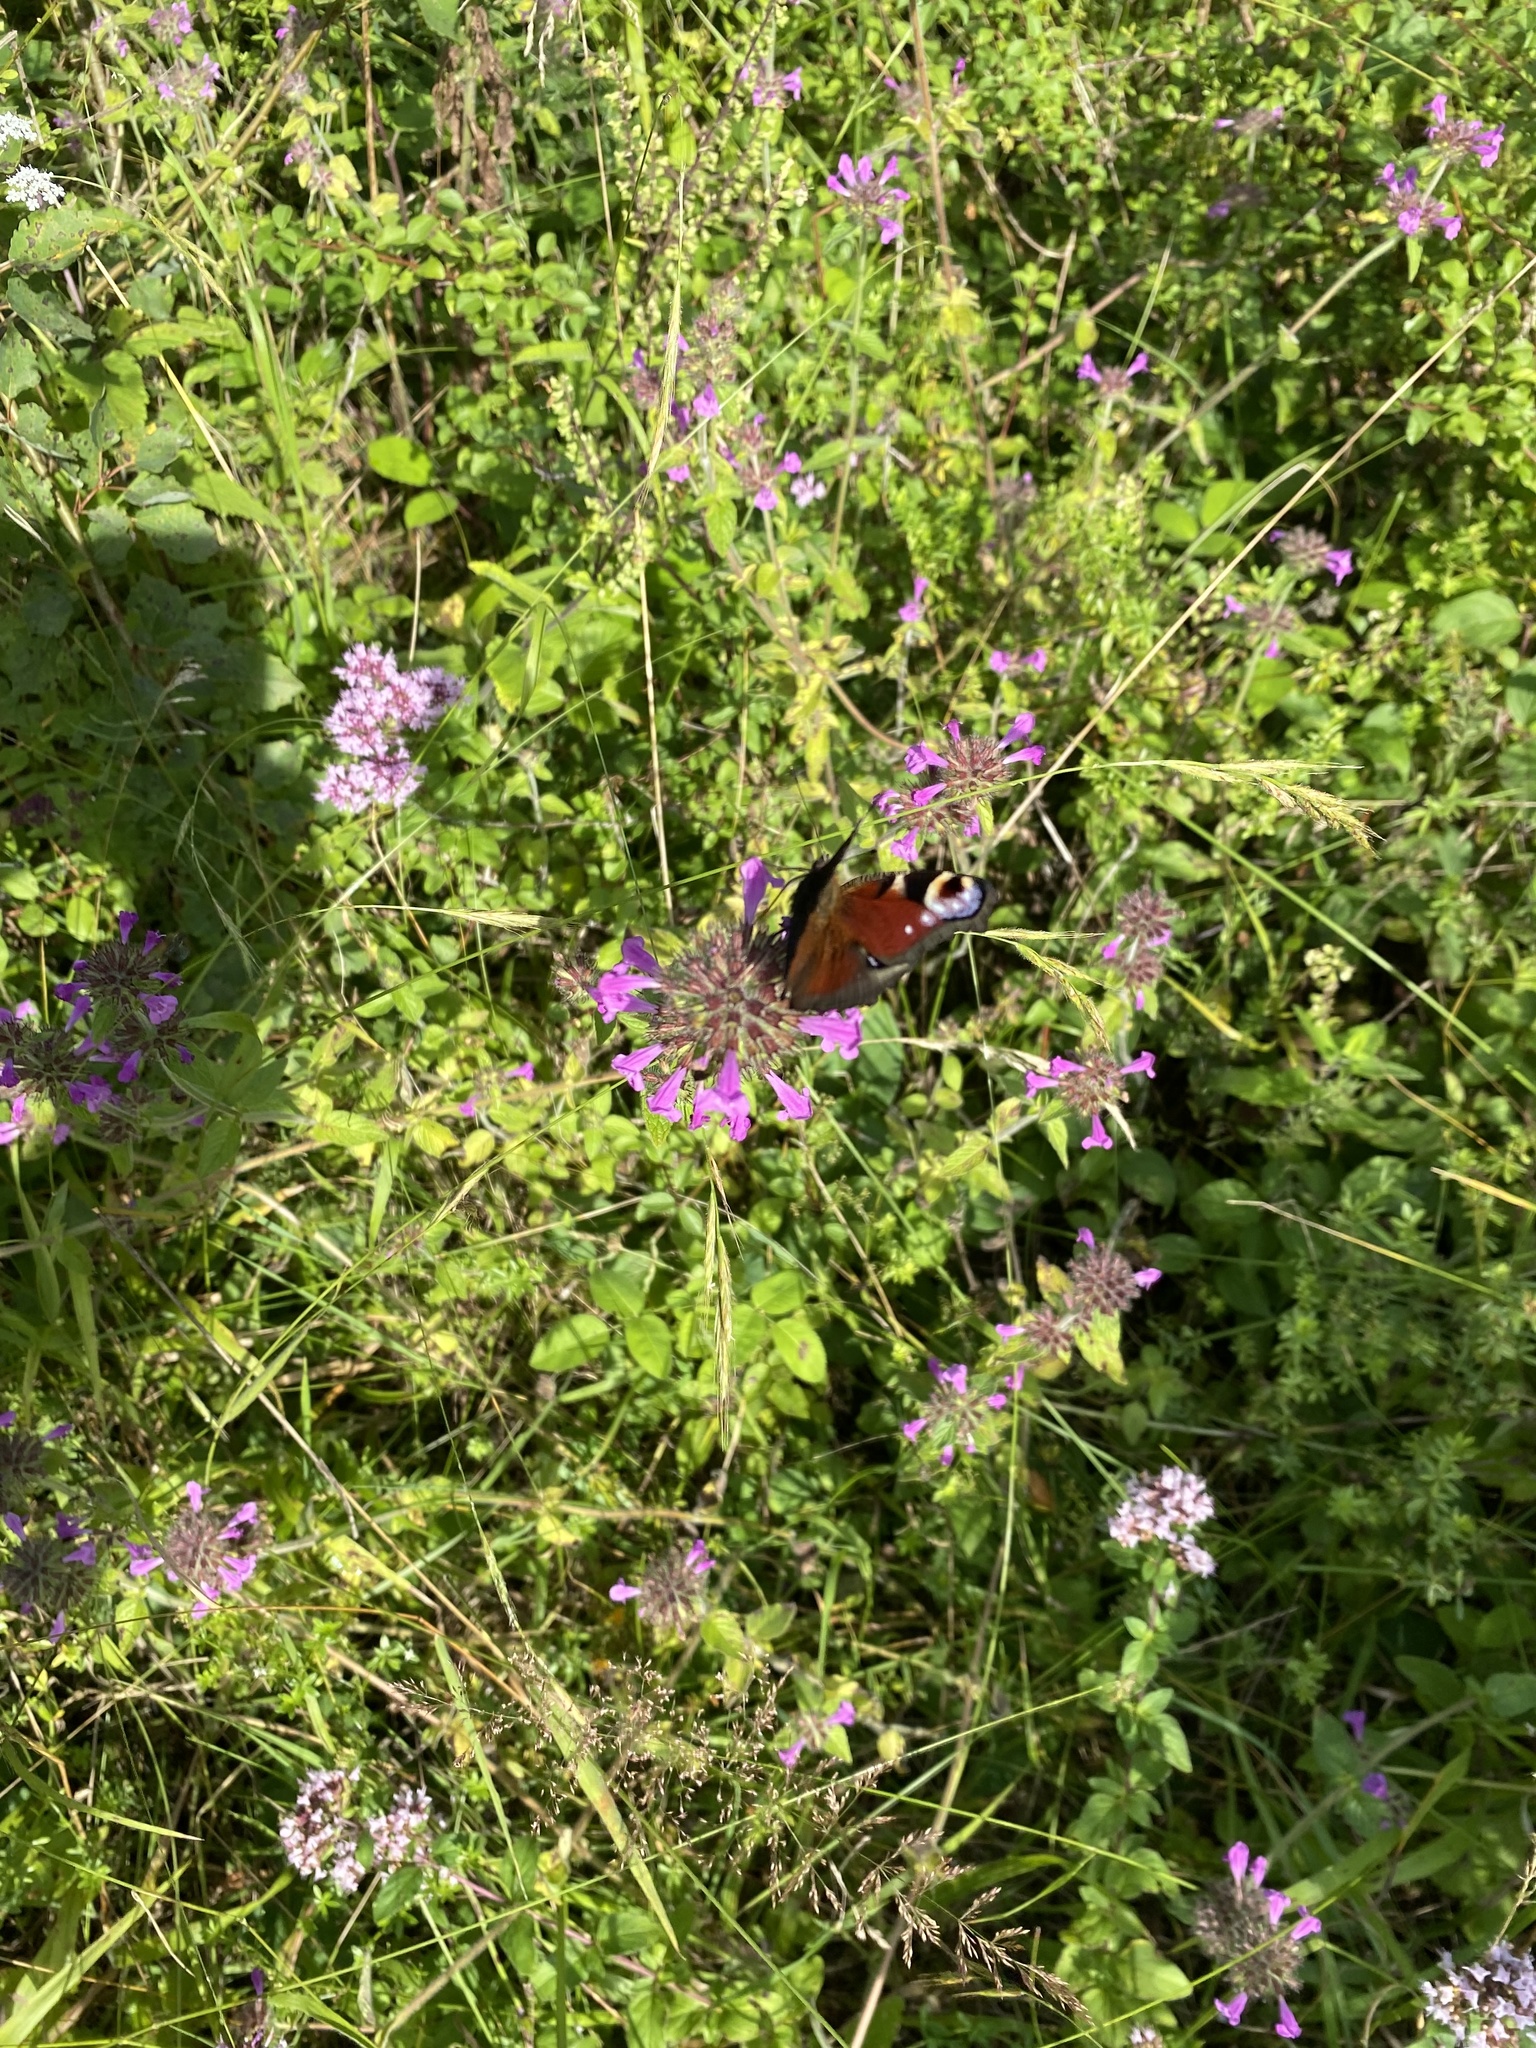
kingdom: Animalia
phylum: Arthropoda
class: Insecta
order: Lepidoptera
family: Nymphalidae
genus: Aglais
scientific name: Aglais io
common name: Peacock
